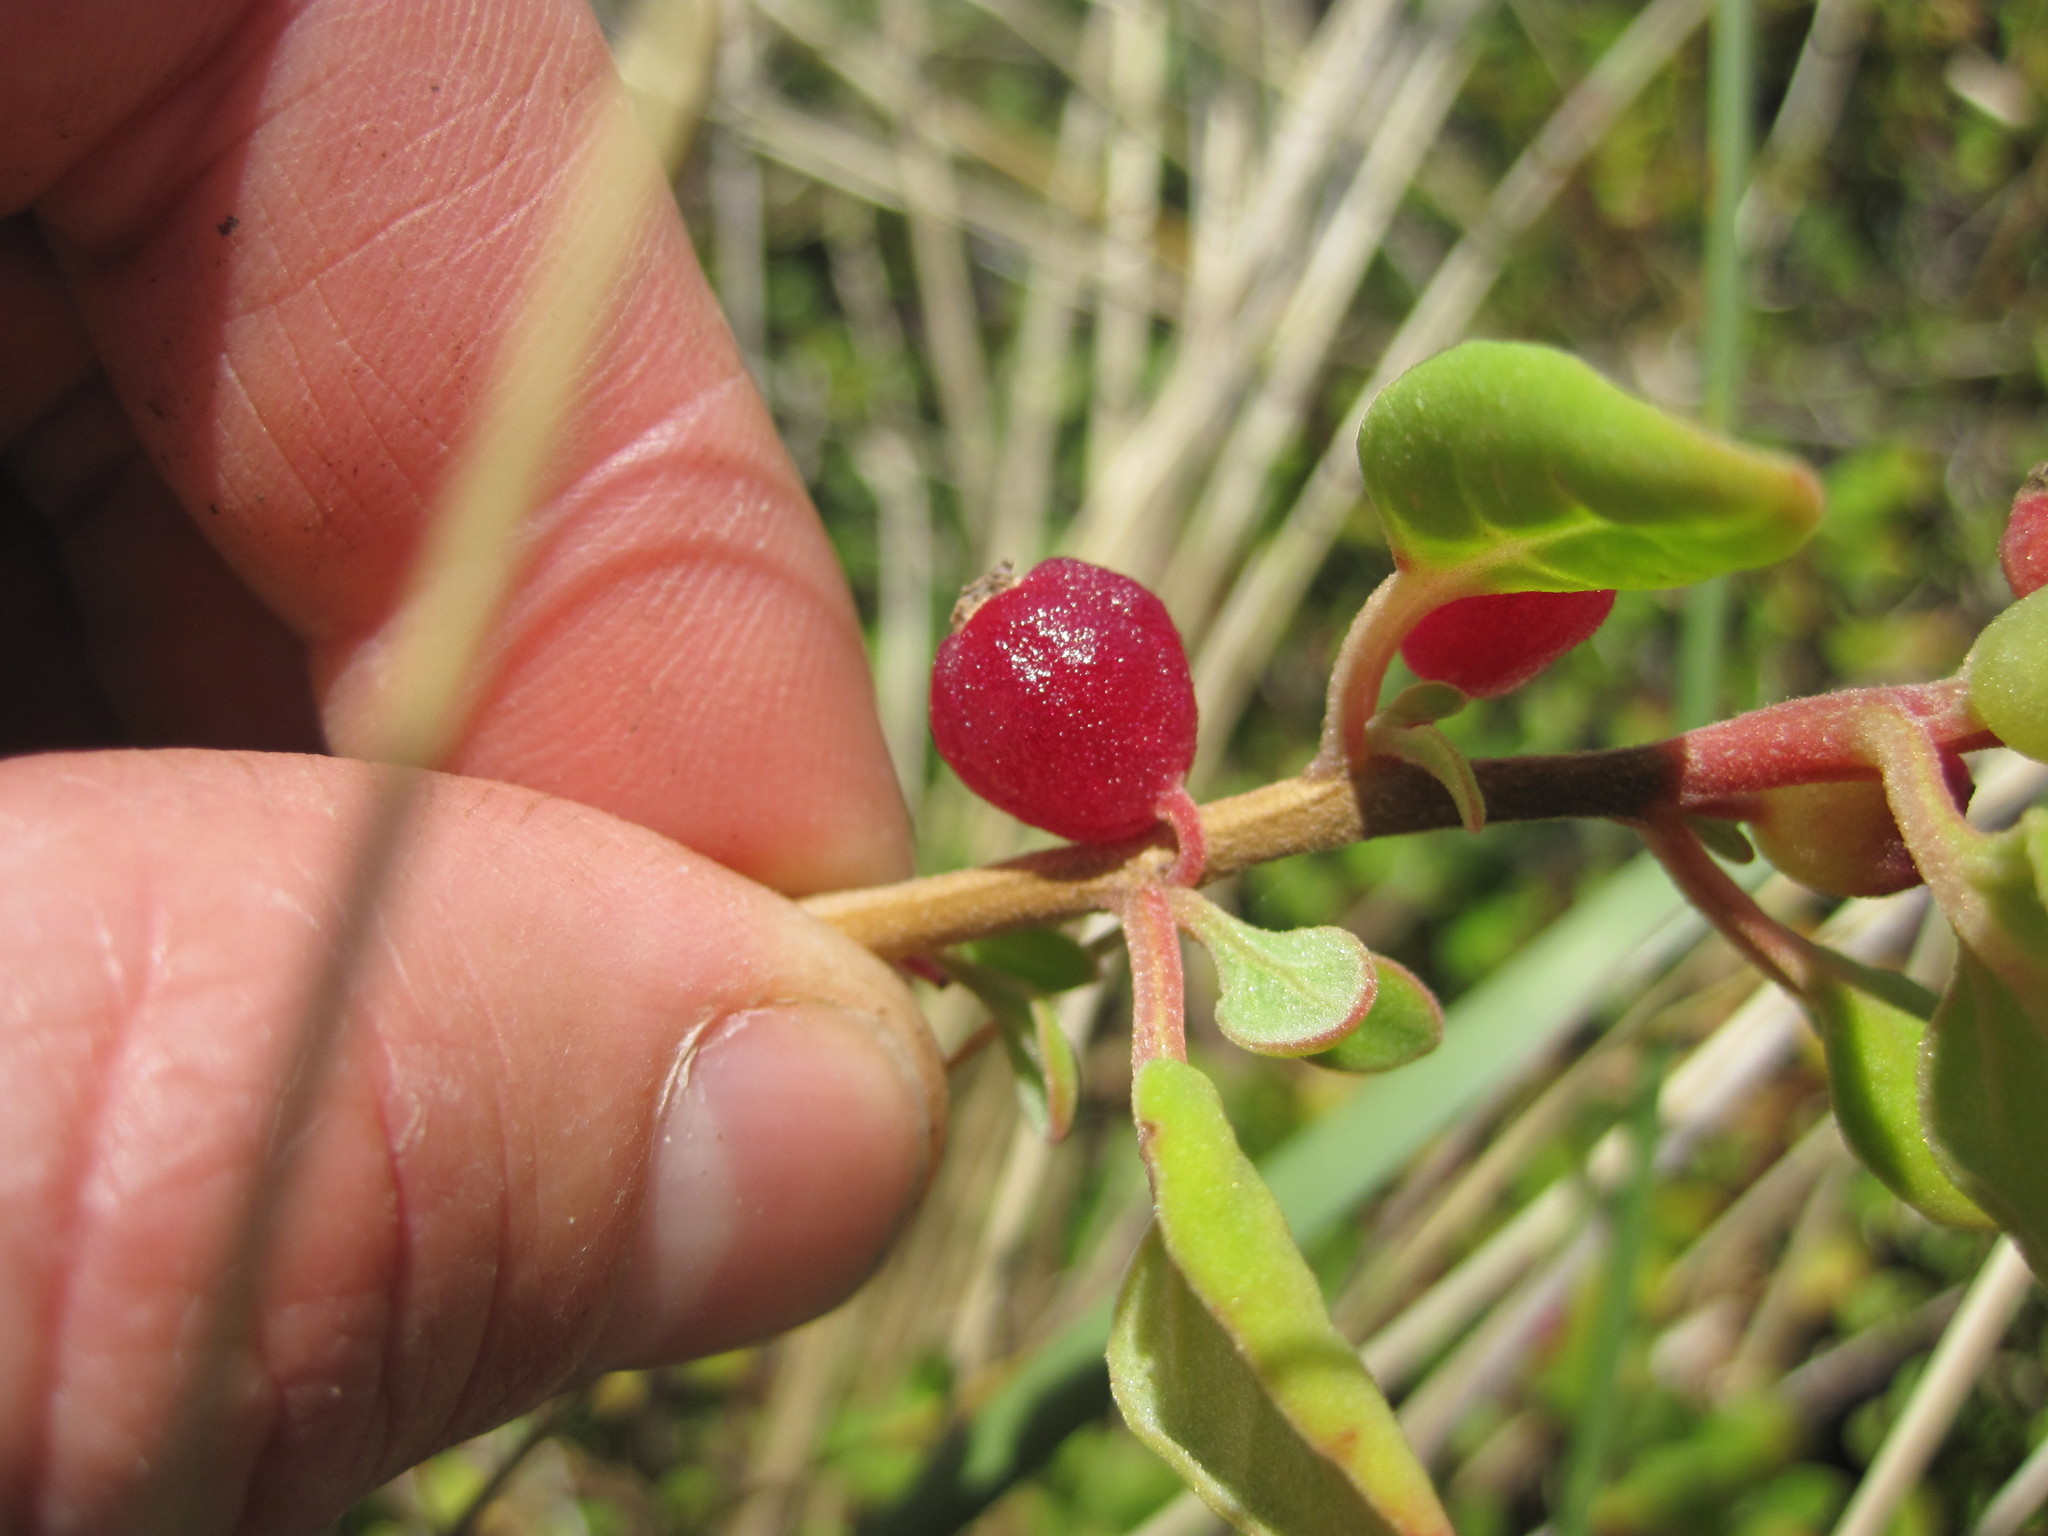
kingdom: Plantae
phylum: Tracheophyta
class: Magnoliopsida
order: Caryophyllales
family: Aizoaceae
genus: Tetragonia
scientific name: Tetragonia implexicoma
